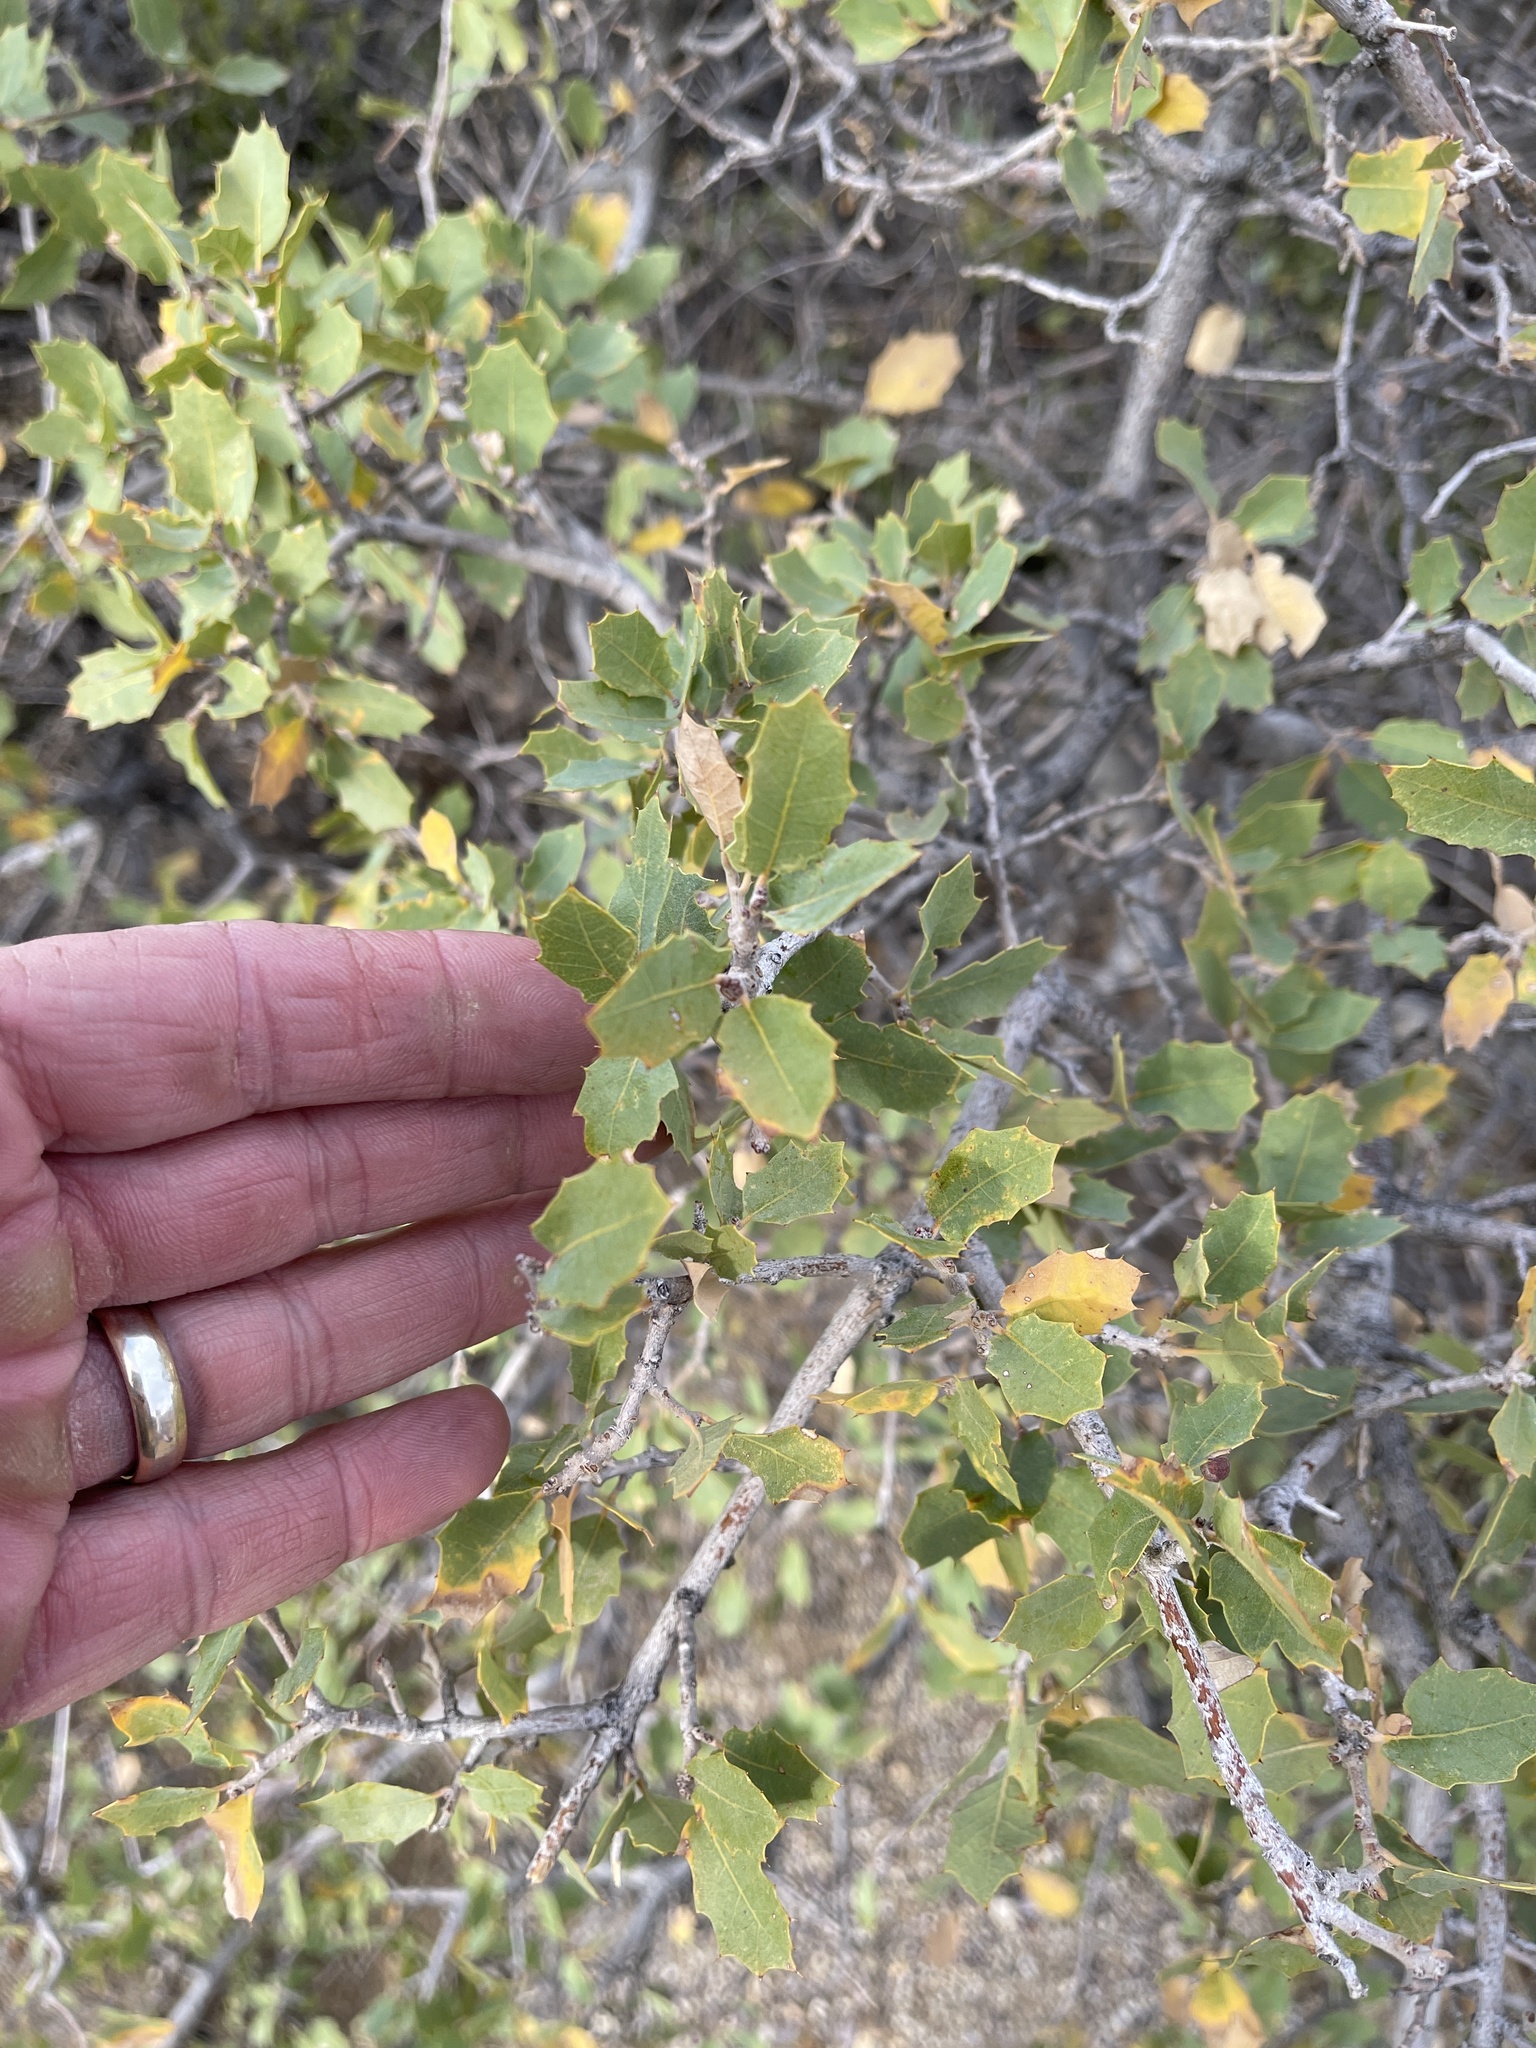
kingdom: Plantae
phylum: Tracheophyta
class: Magnoliopsida
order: Fagales
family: Fagaceae
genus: Quercus
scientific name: Quercus turbinella
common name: Sonoran scrub oak
